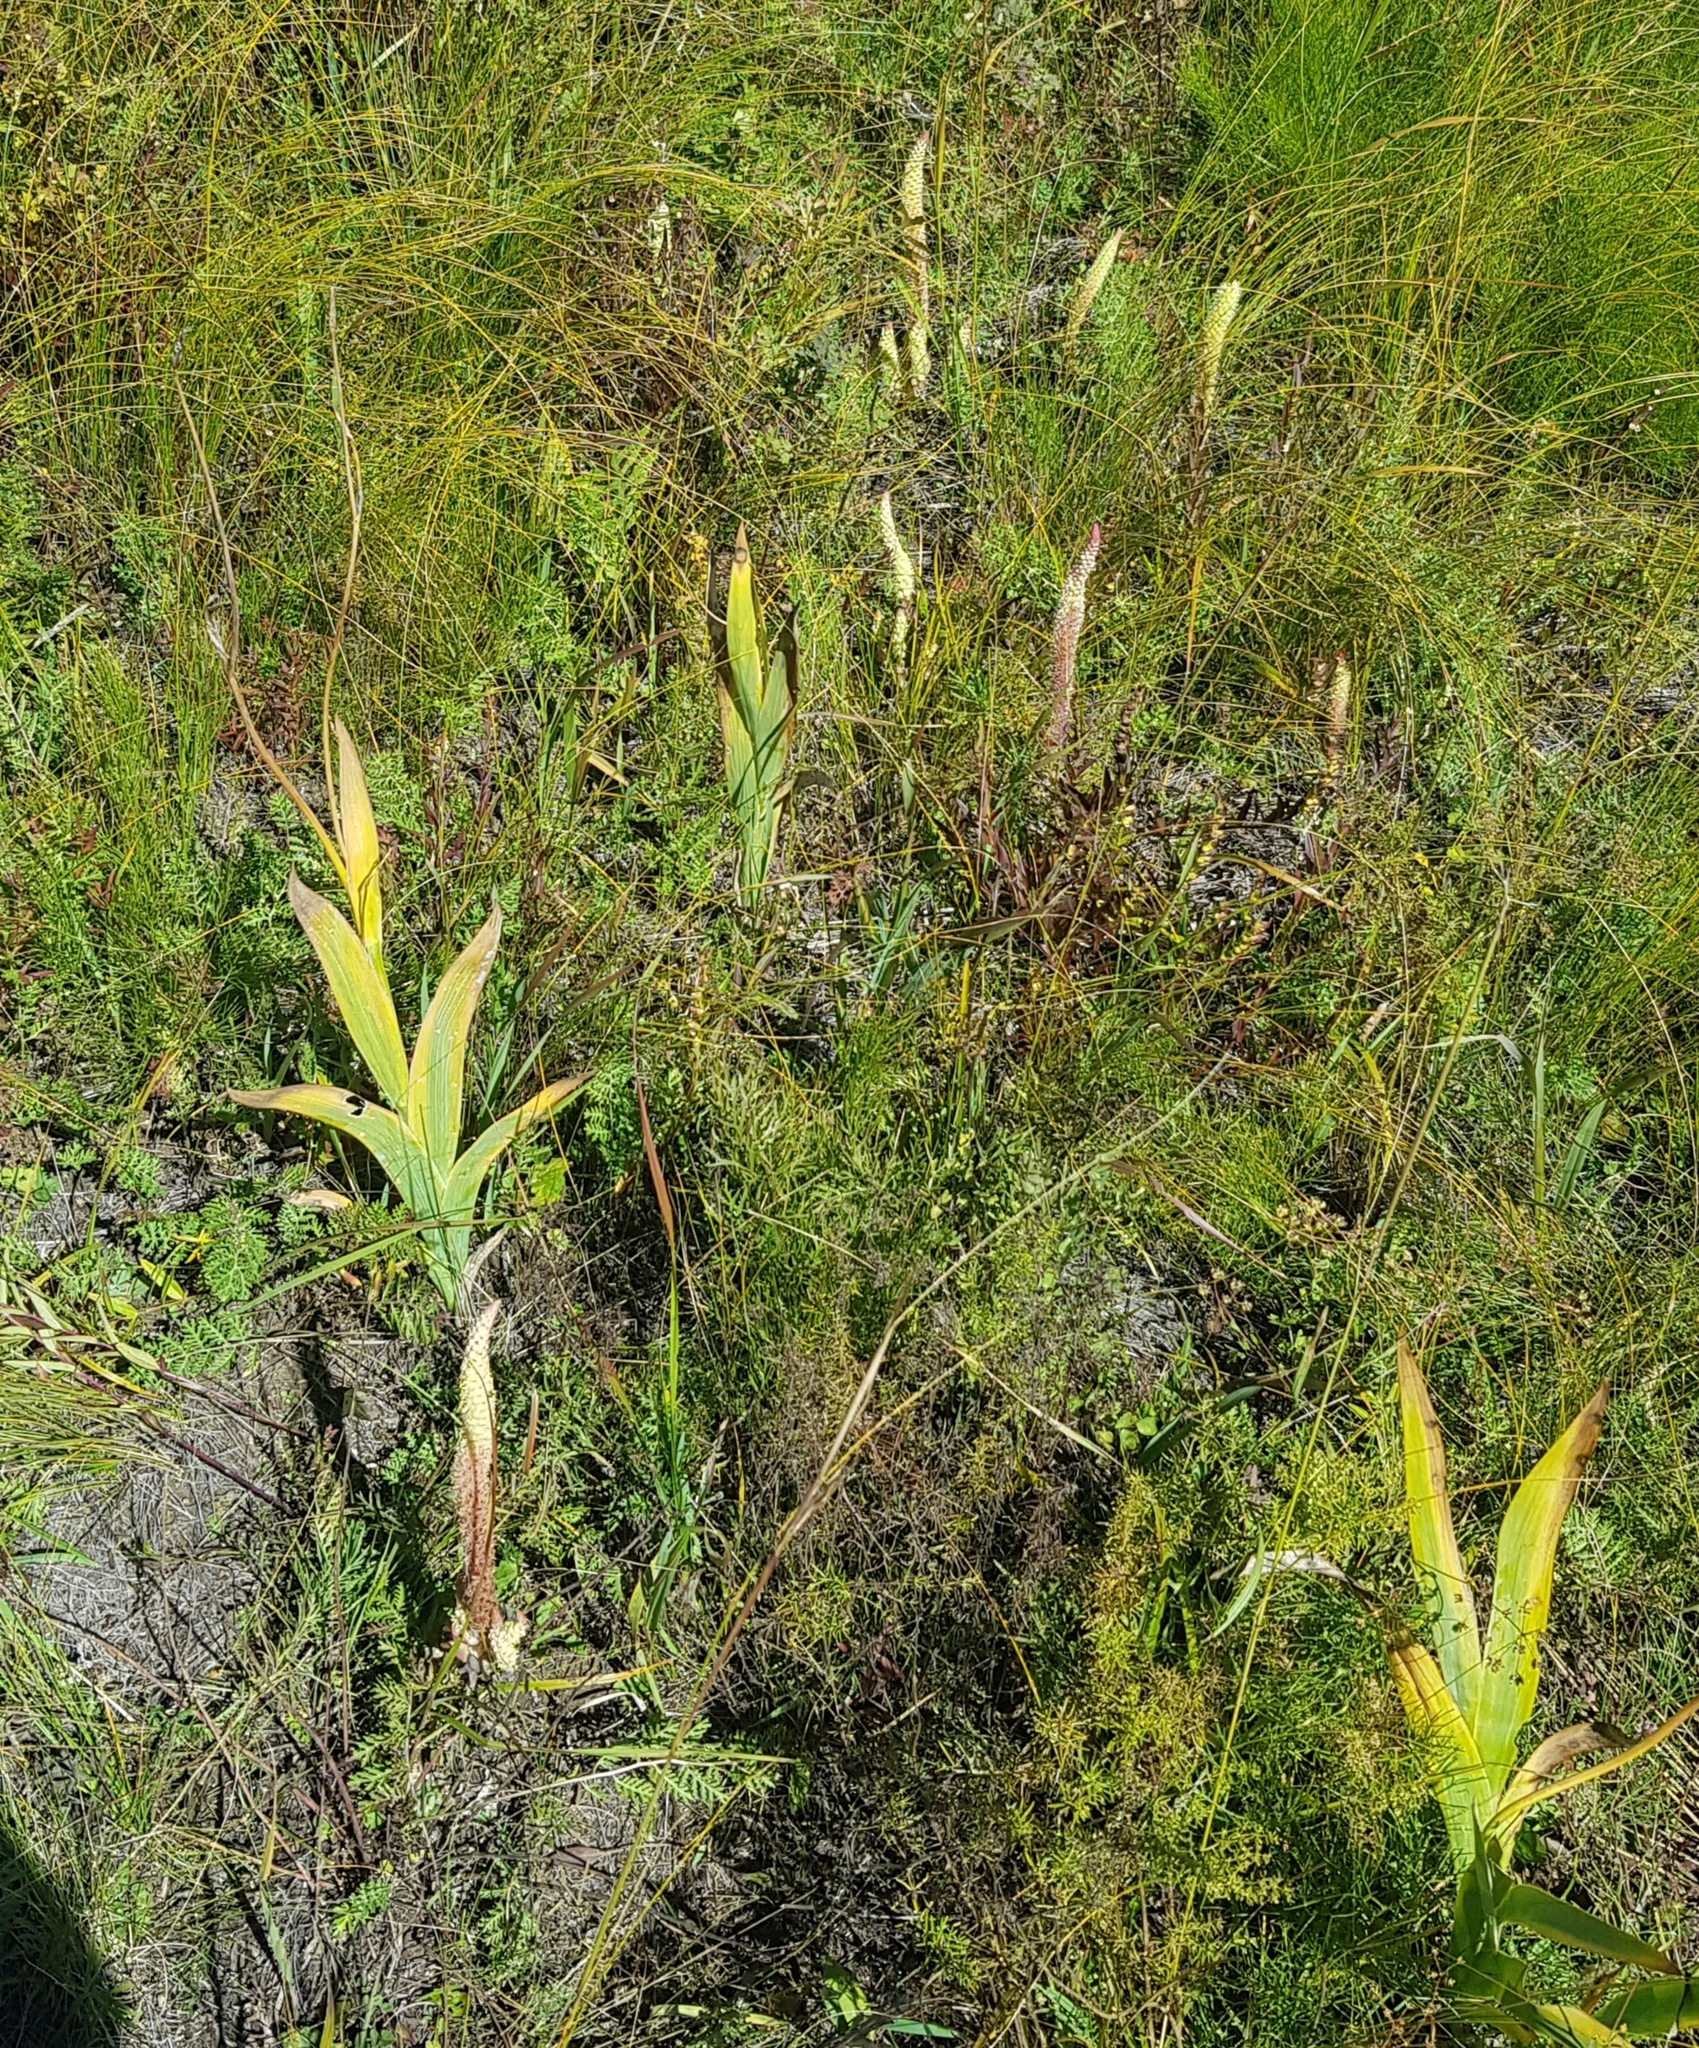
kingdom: Plantae
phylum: Tracheophyta
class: Liliopsida
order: Asparagales
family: Iridaceae
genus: Iris
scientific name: Iris dichotoma
